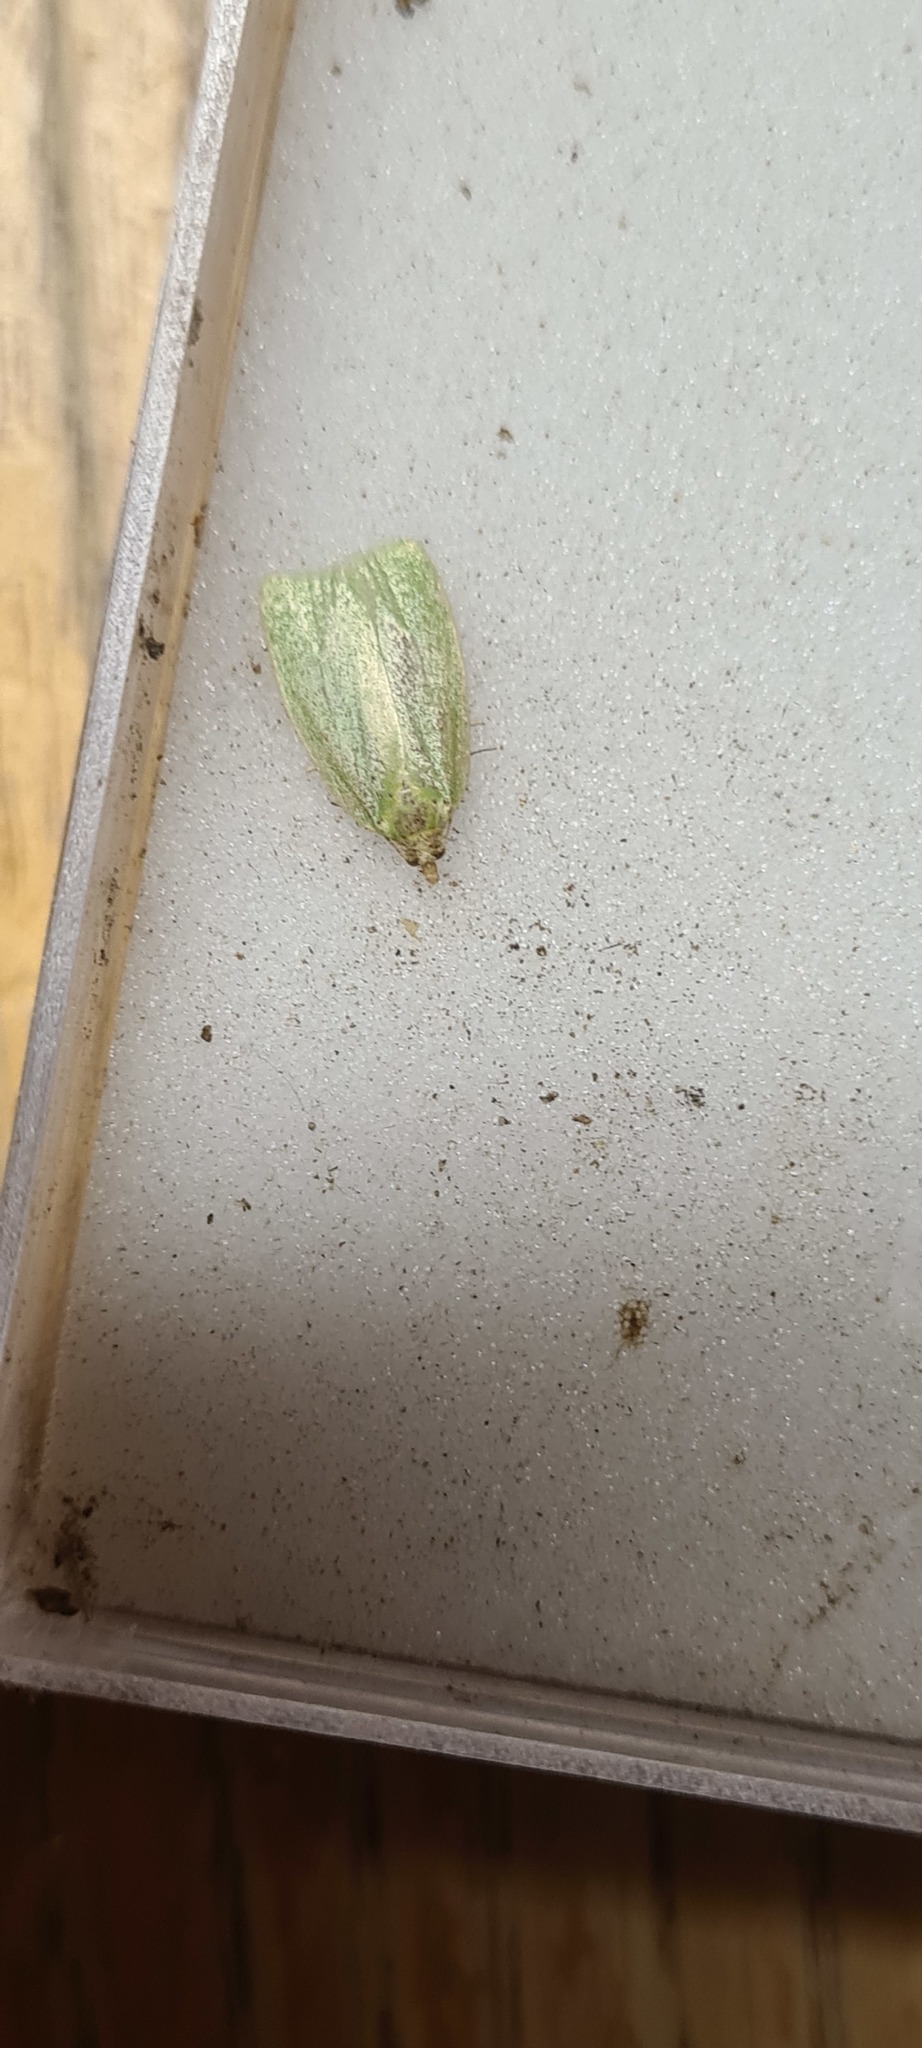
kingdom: Animalia
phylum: Arthropoda
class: Insecta
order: Lepidoptera
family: Tortricidae
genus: Tortrix
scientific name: Tortrix viridana
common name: Green oak tortrix
